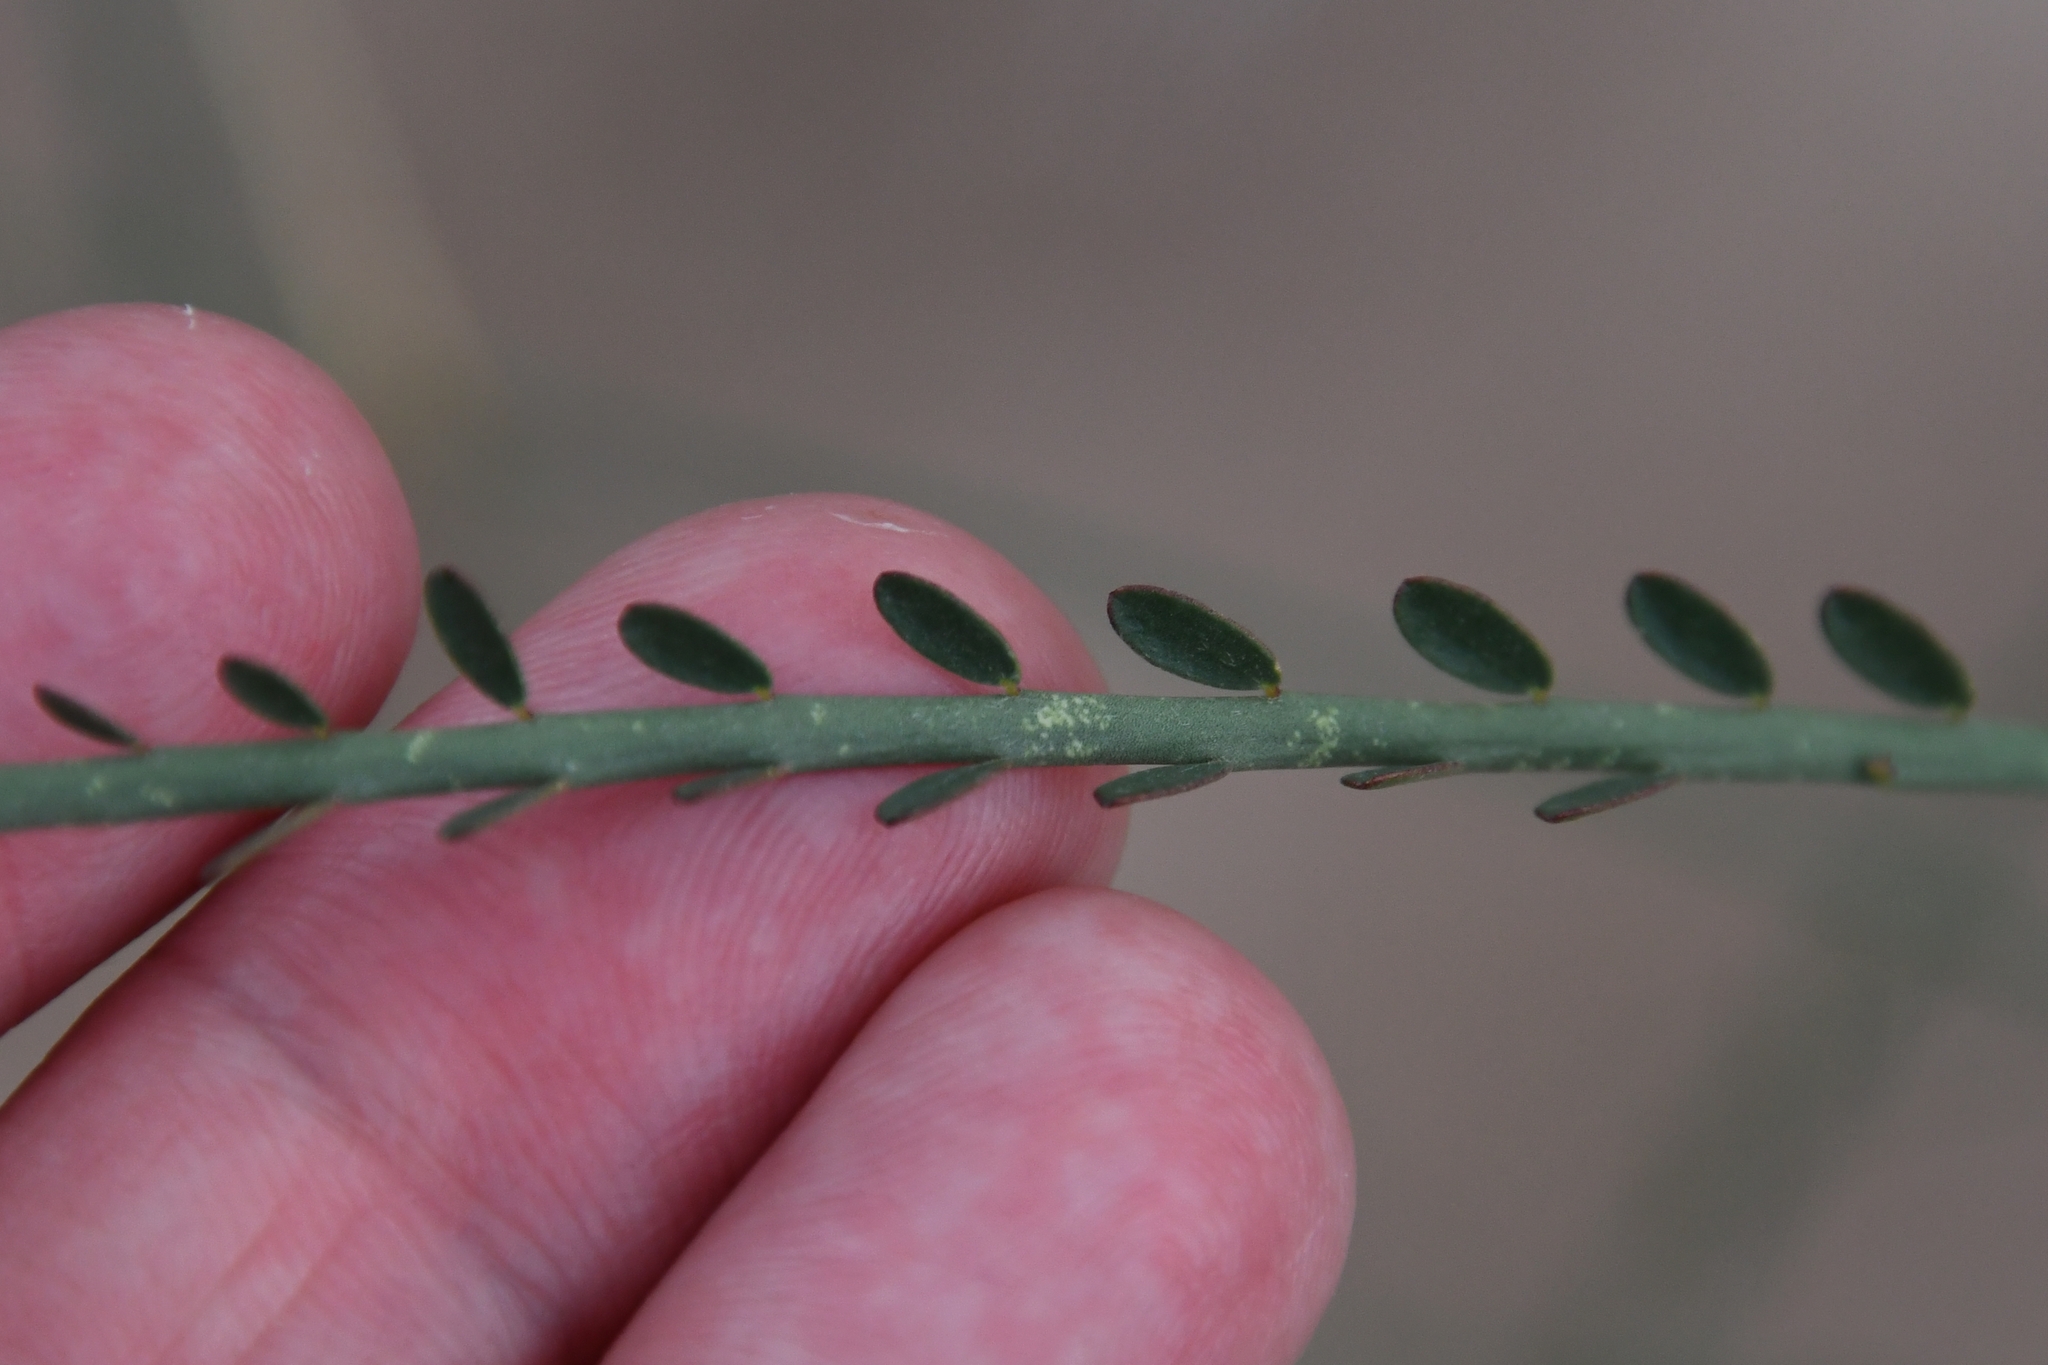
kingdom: Plantae
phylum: Tracheophyta
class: Magnoliopsida
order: Fabales
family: Fabaceae
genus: Parkinsonia
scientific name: Parkinsonia aculeata
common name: Jerusalem thorn
